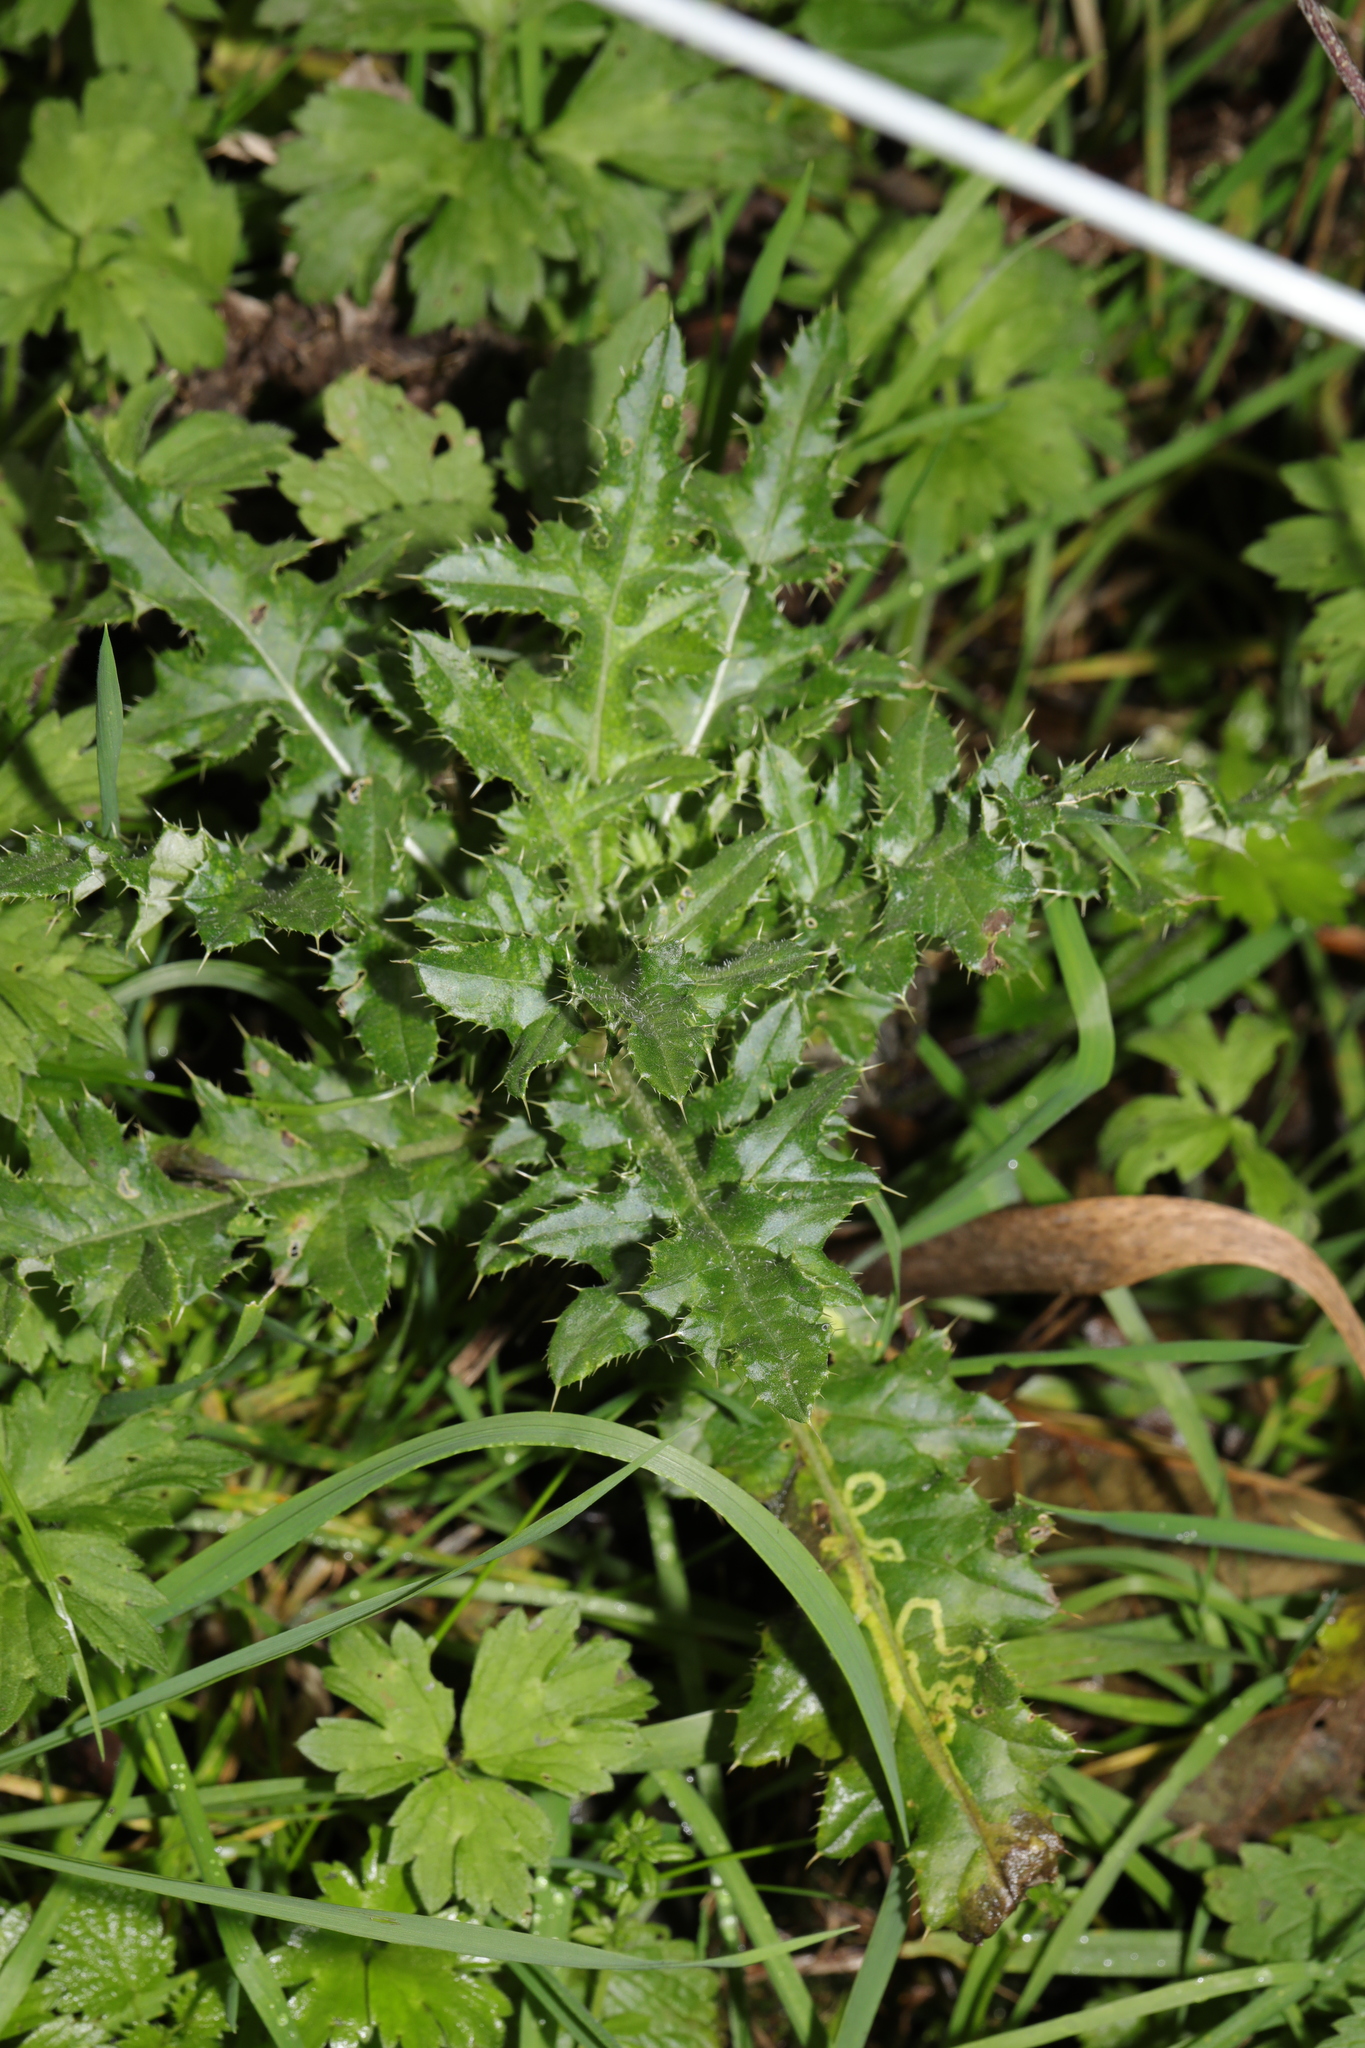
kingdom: Plantae
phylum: Tracheophyta
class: Magnoliopsida
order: Asterales
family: Asteraceae
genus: Cirsium
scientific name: Cirsium arvense
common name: Creeping thistle
